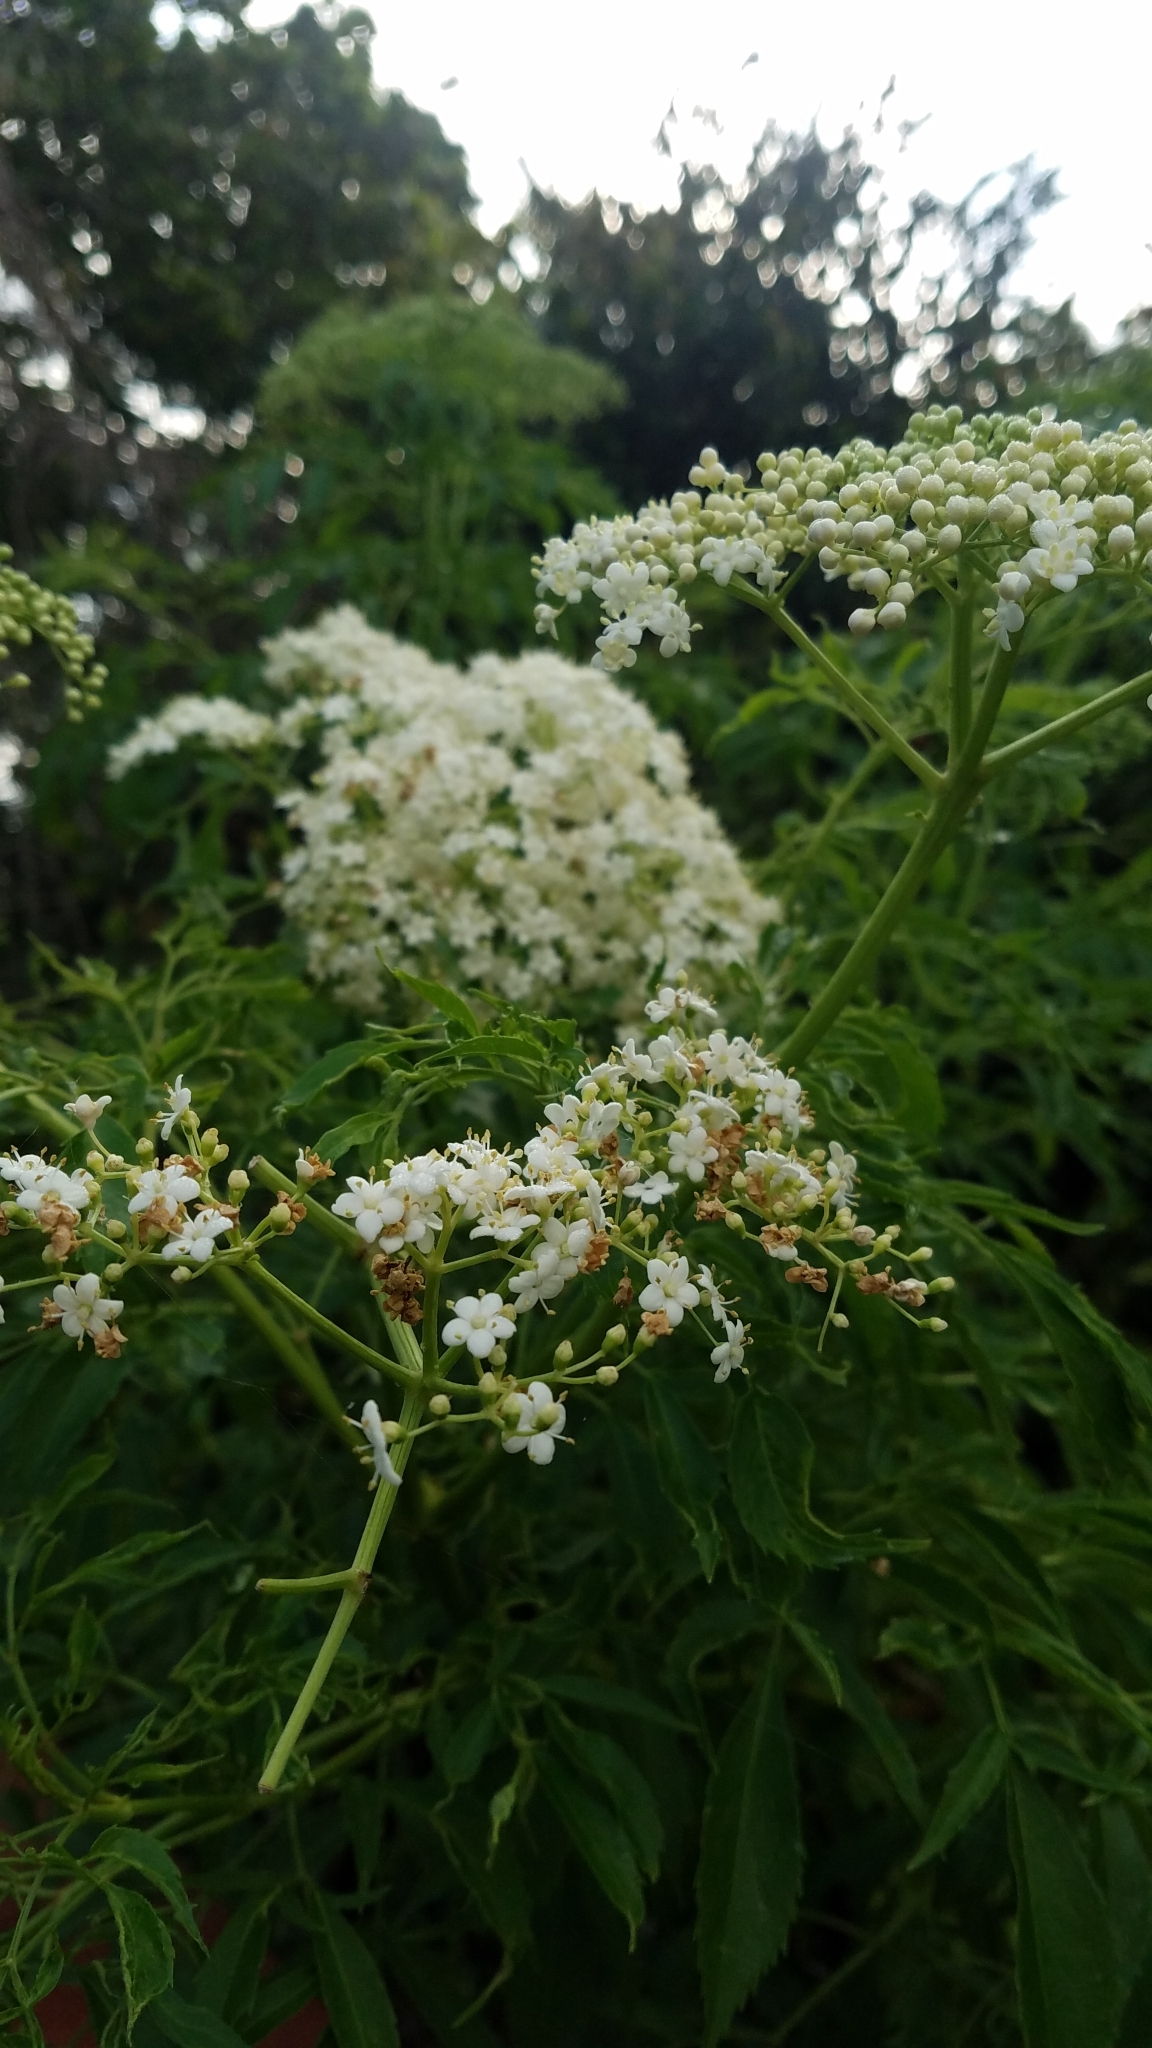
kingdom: Plantae
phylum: Tracheophyta
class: Magnoliopsida
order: Dipsacales
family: Viburnaceae
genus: Sambucus
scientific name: Sambucus canadensis
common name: American elder
